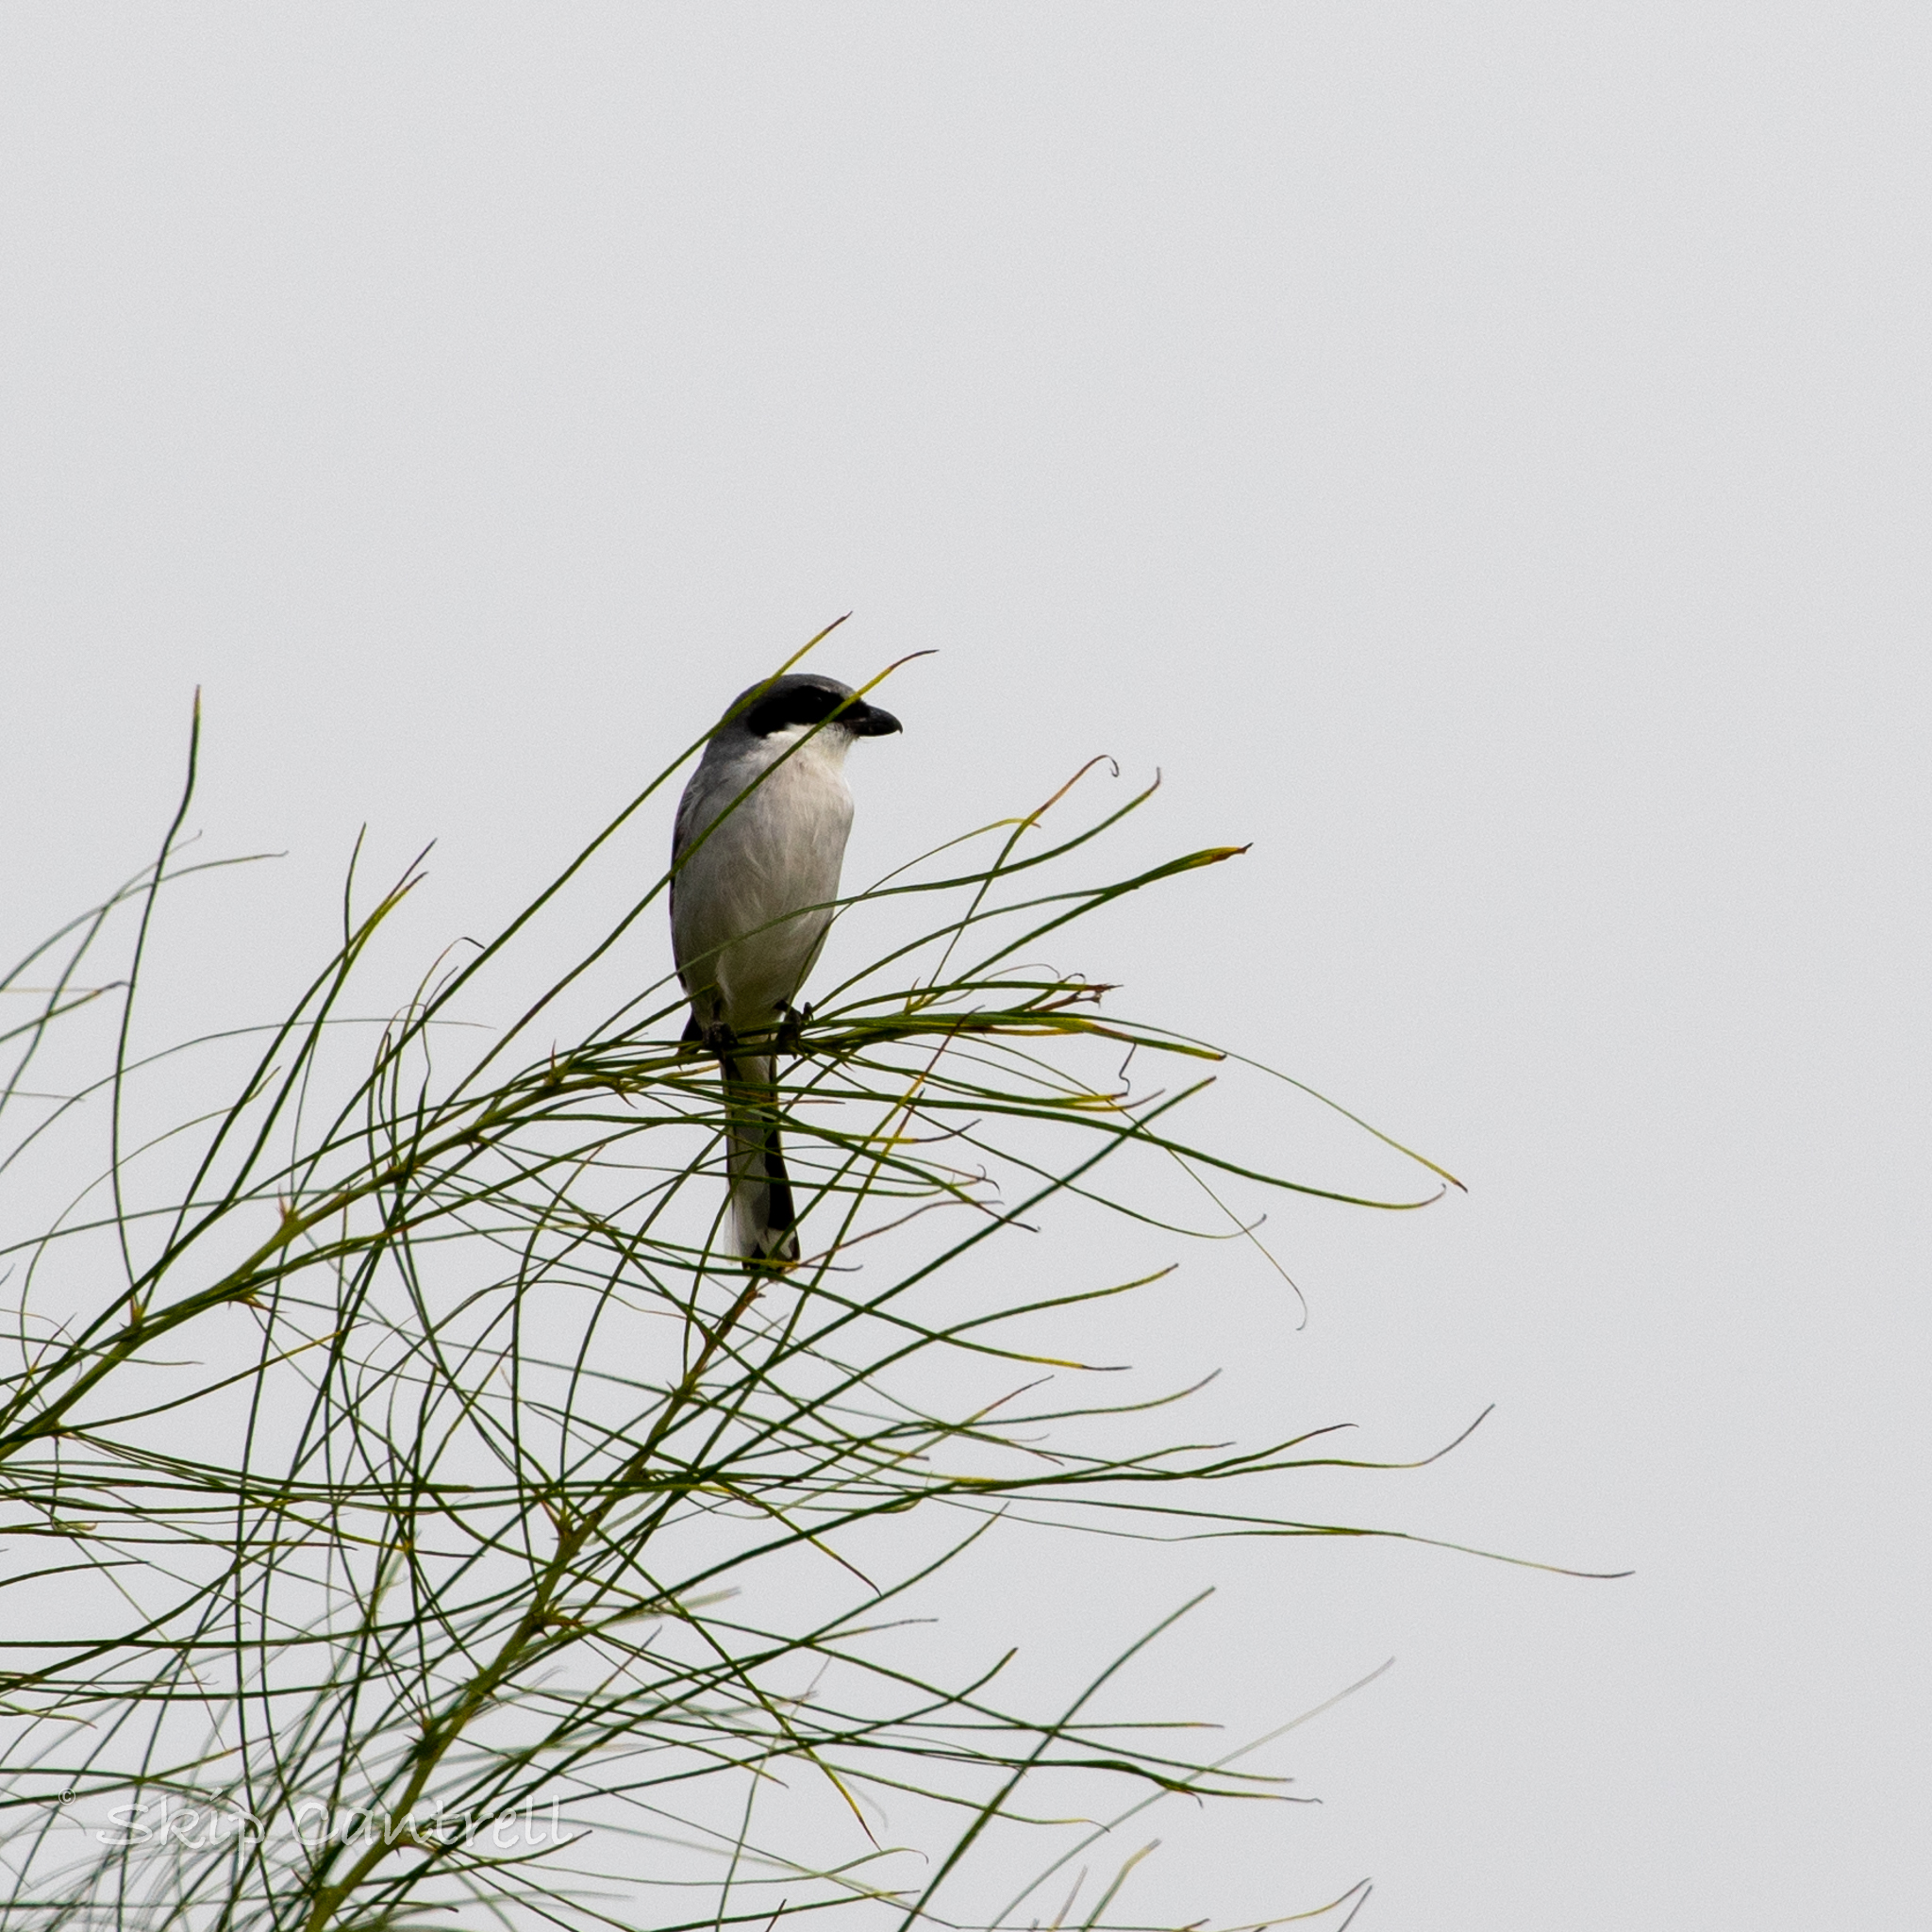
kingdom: Animalia
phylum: Chordata
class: Aves
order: Passeriformes
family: Laniidae
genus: Lanius
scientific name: Lanius ludovicianus
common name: Loggerhead shrike
